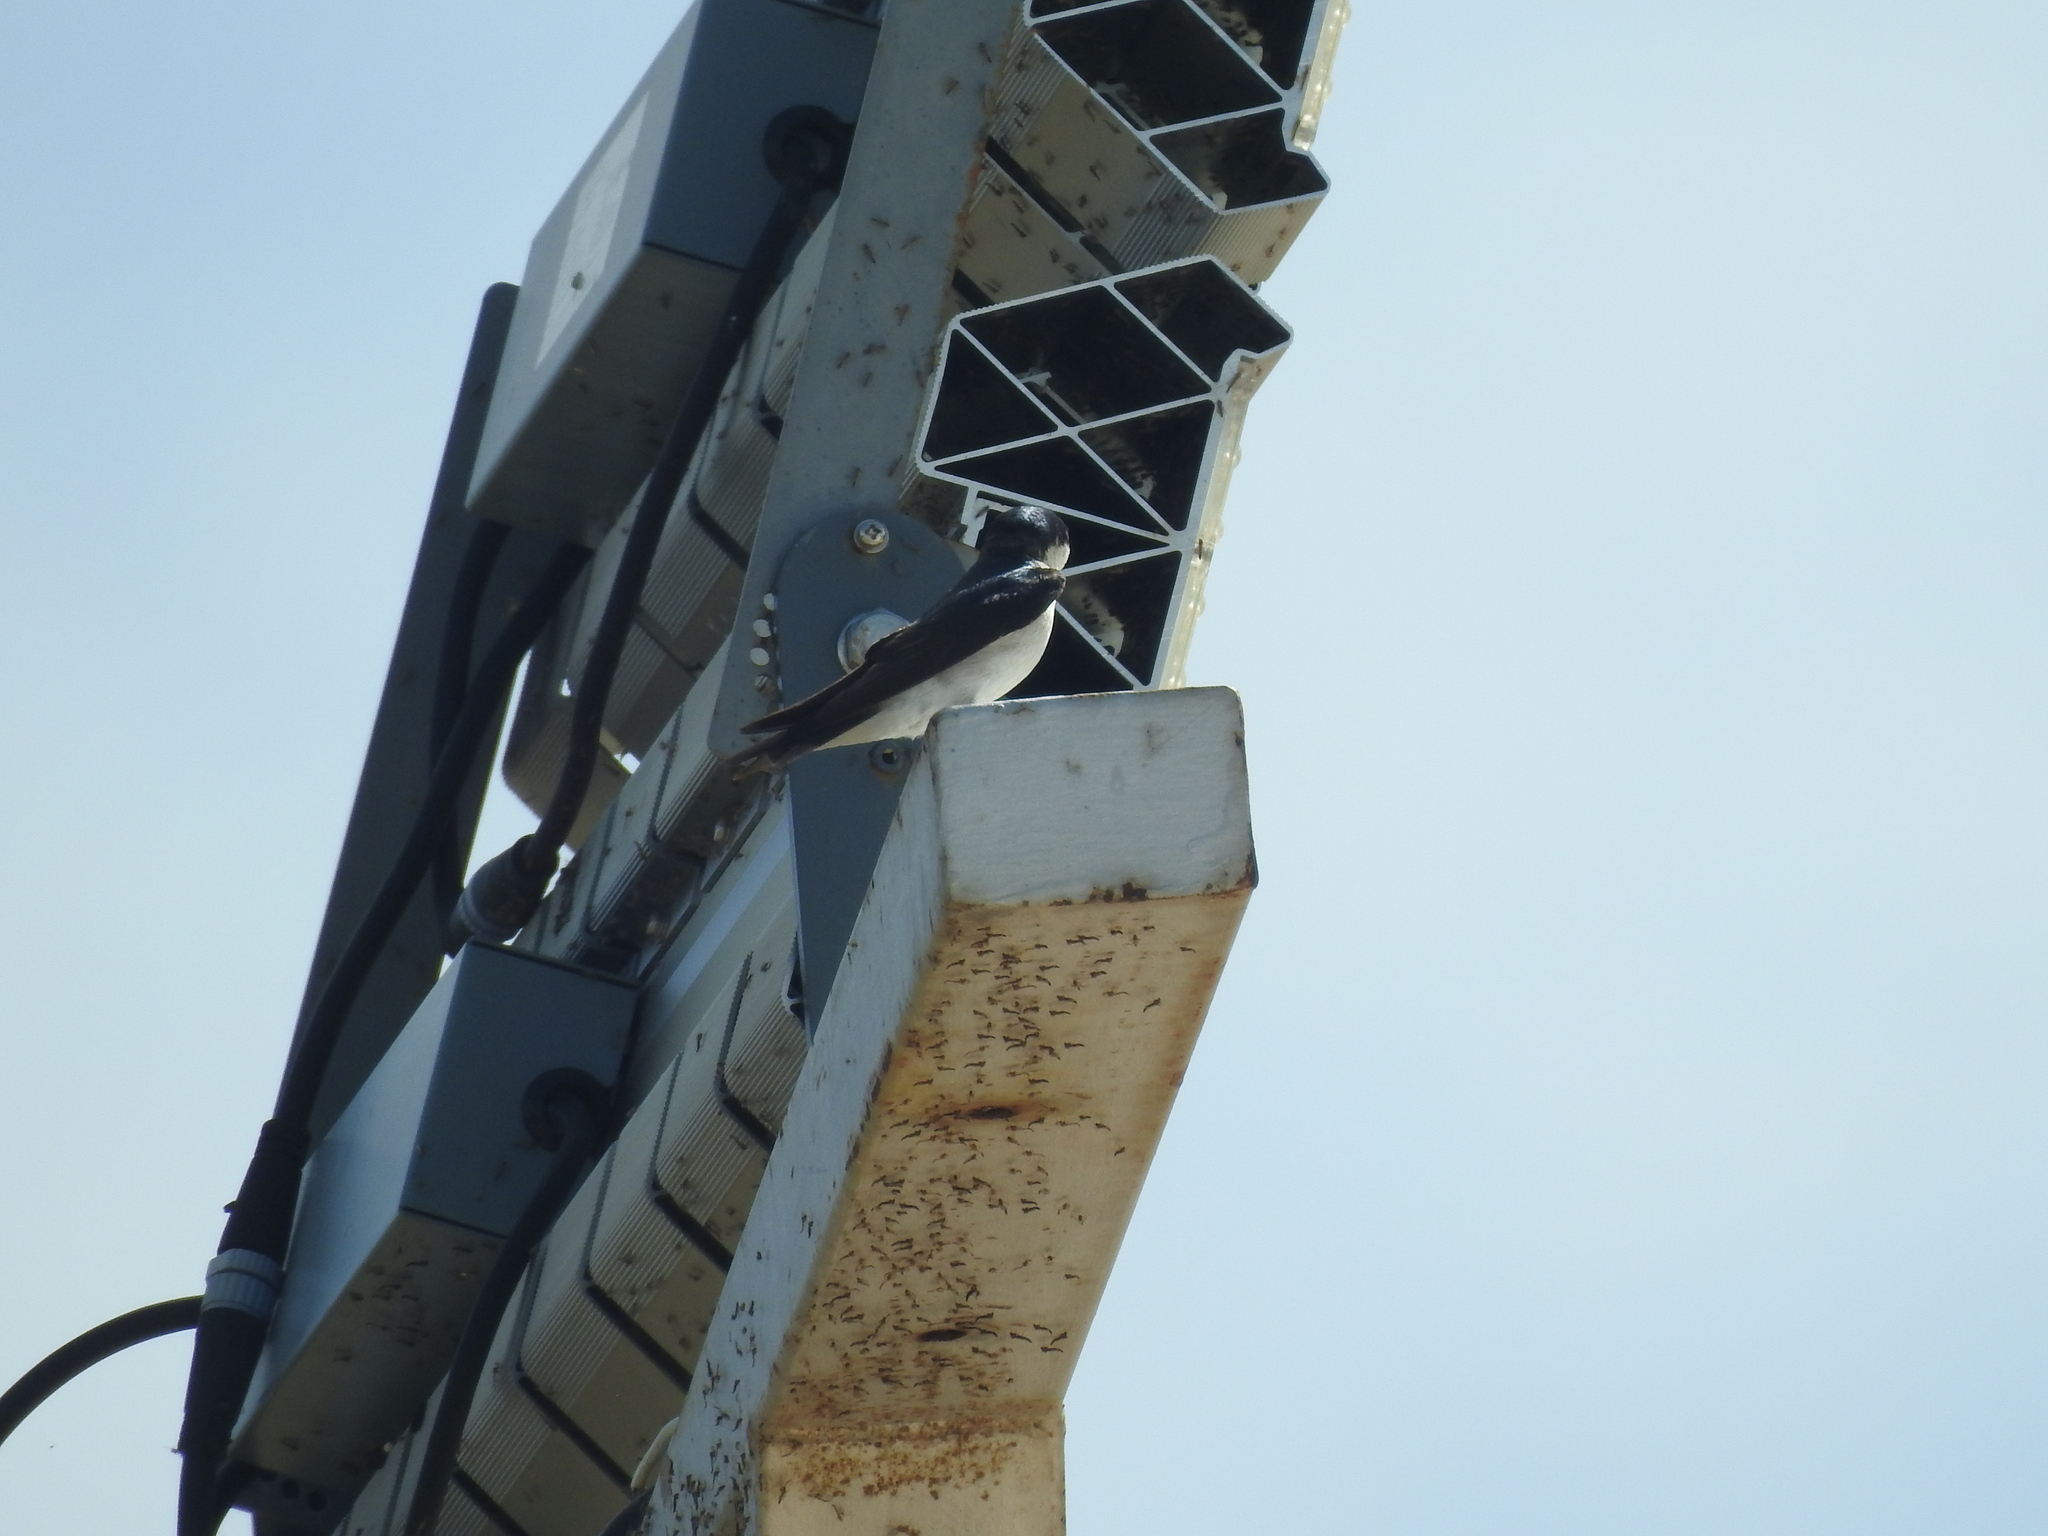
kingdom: Animalia
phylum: Chordata
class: Aves
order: Passeriformes
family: Hirundinidae
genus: Tachycineta
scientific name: Tachycineta albilinea
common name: Mangrove swallow
